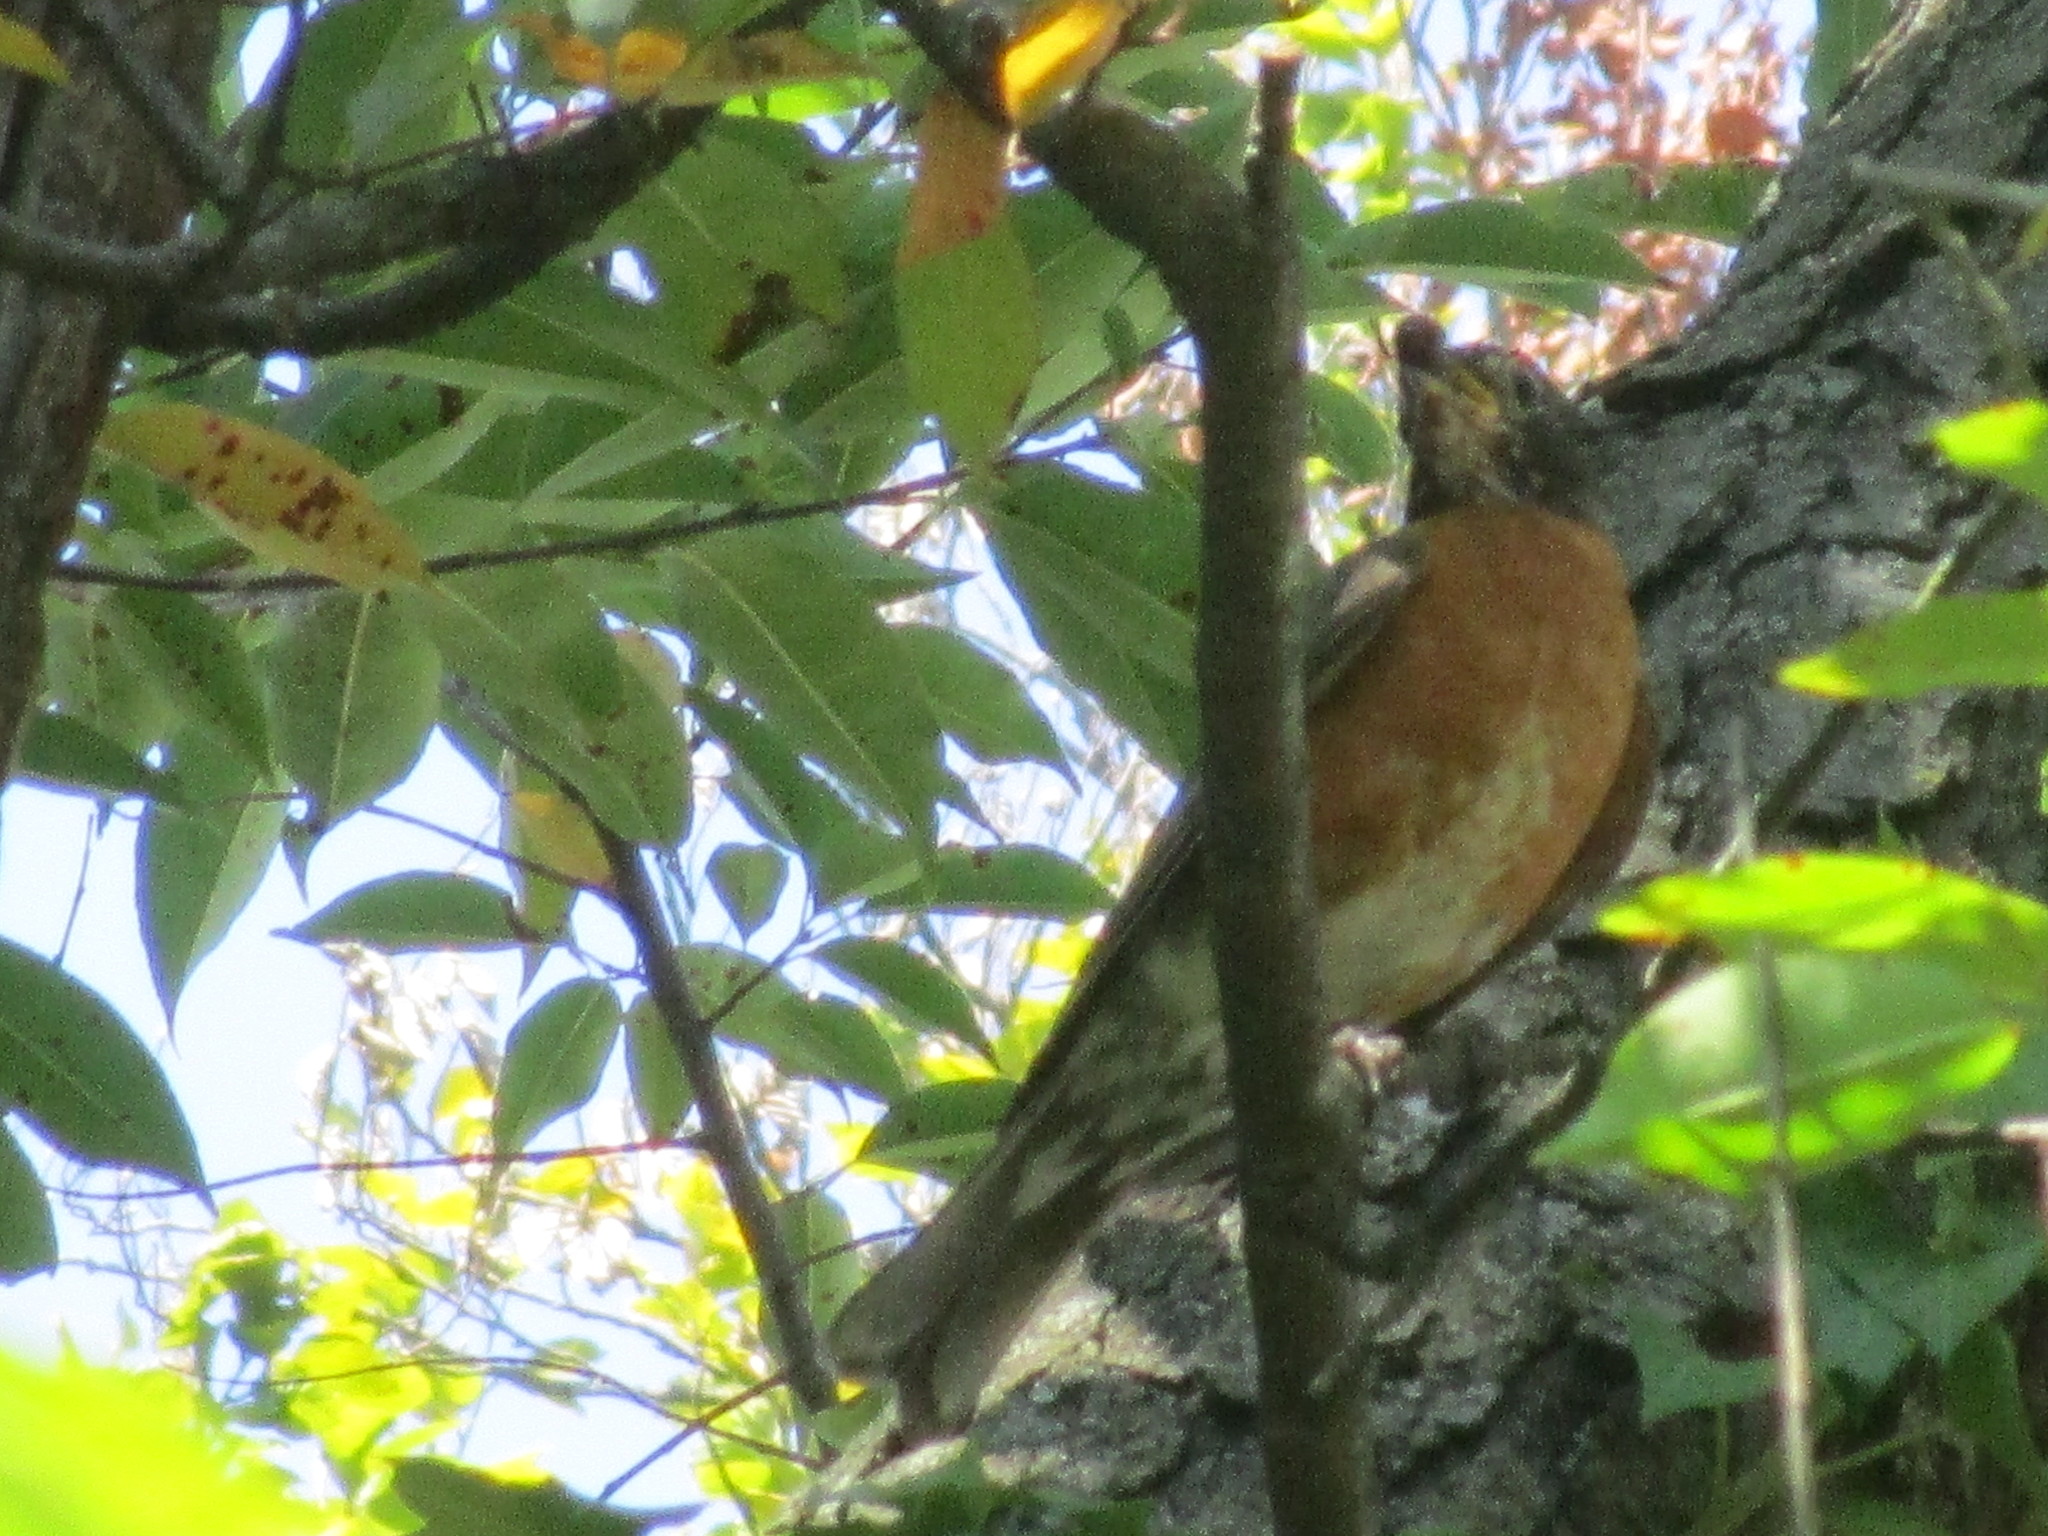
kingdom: Animalia
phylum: Chordata
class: Aves
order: Passeriformes
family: Turdidae
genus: Turdus
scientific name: Turdus migratorius
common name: American robin
